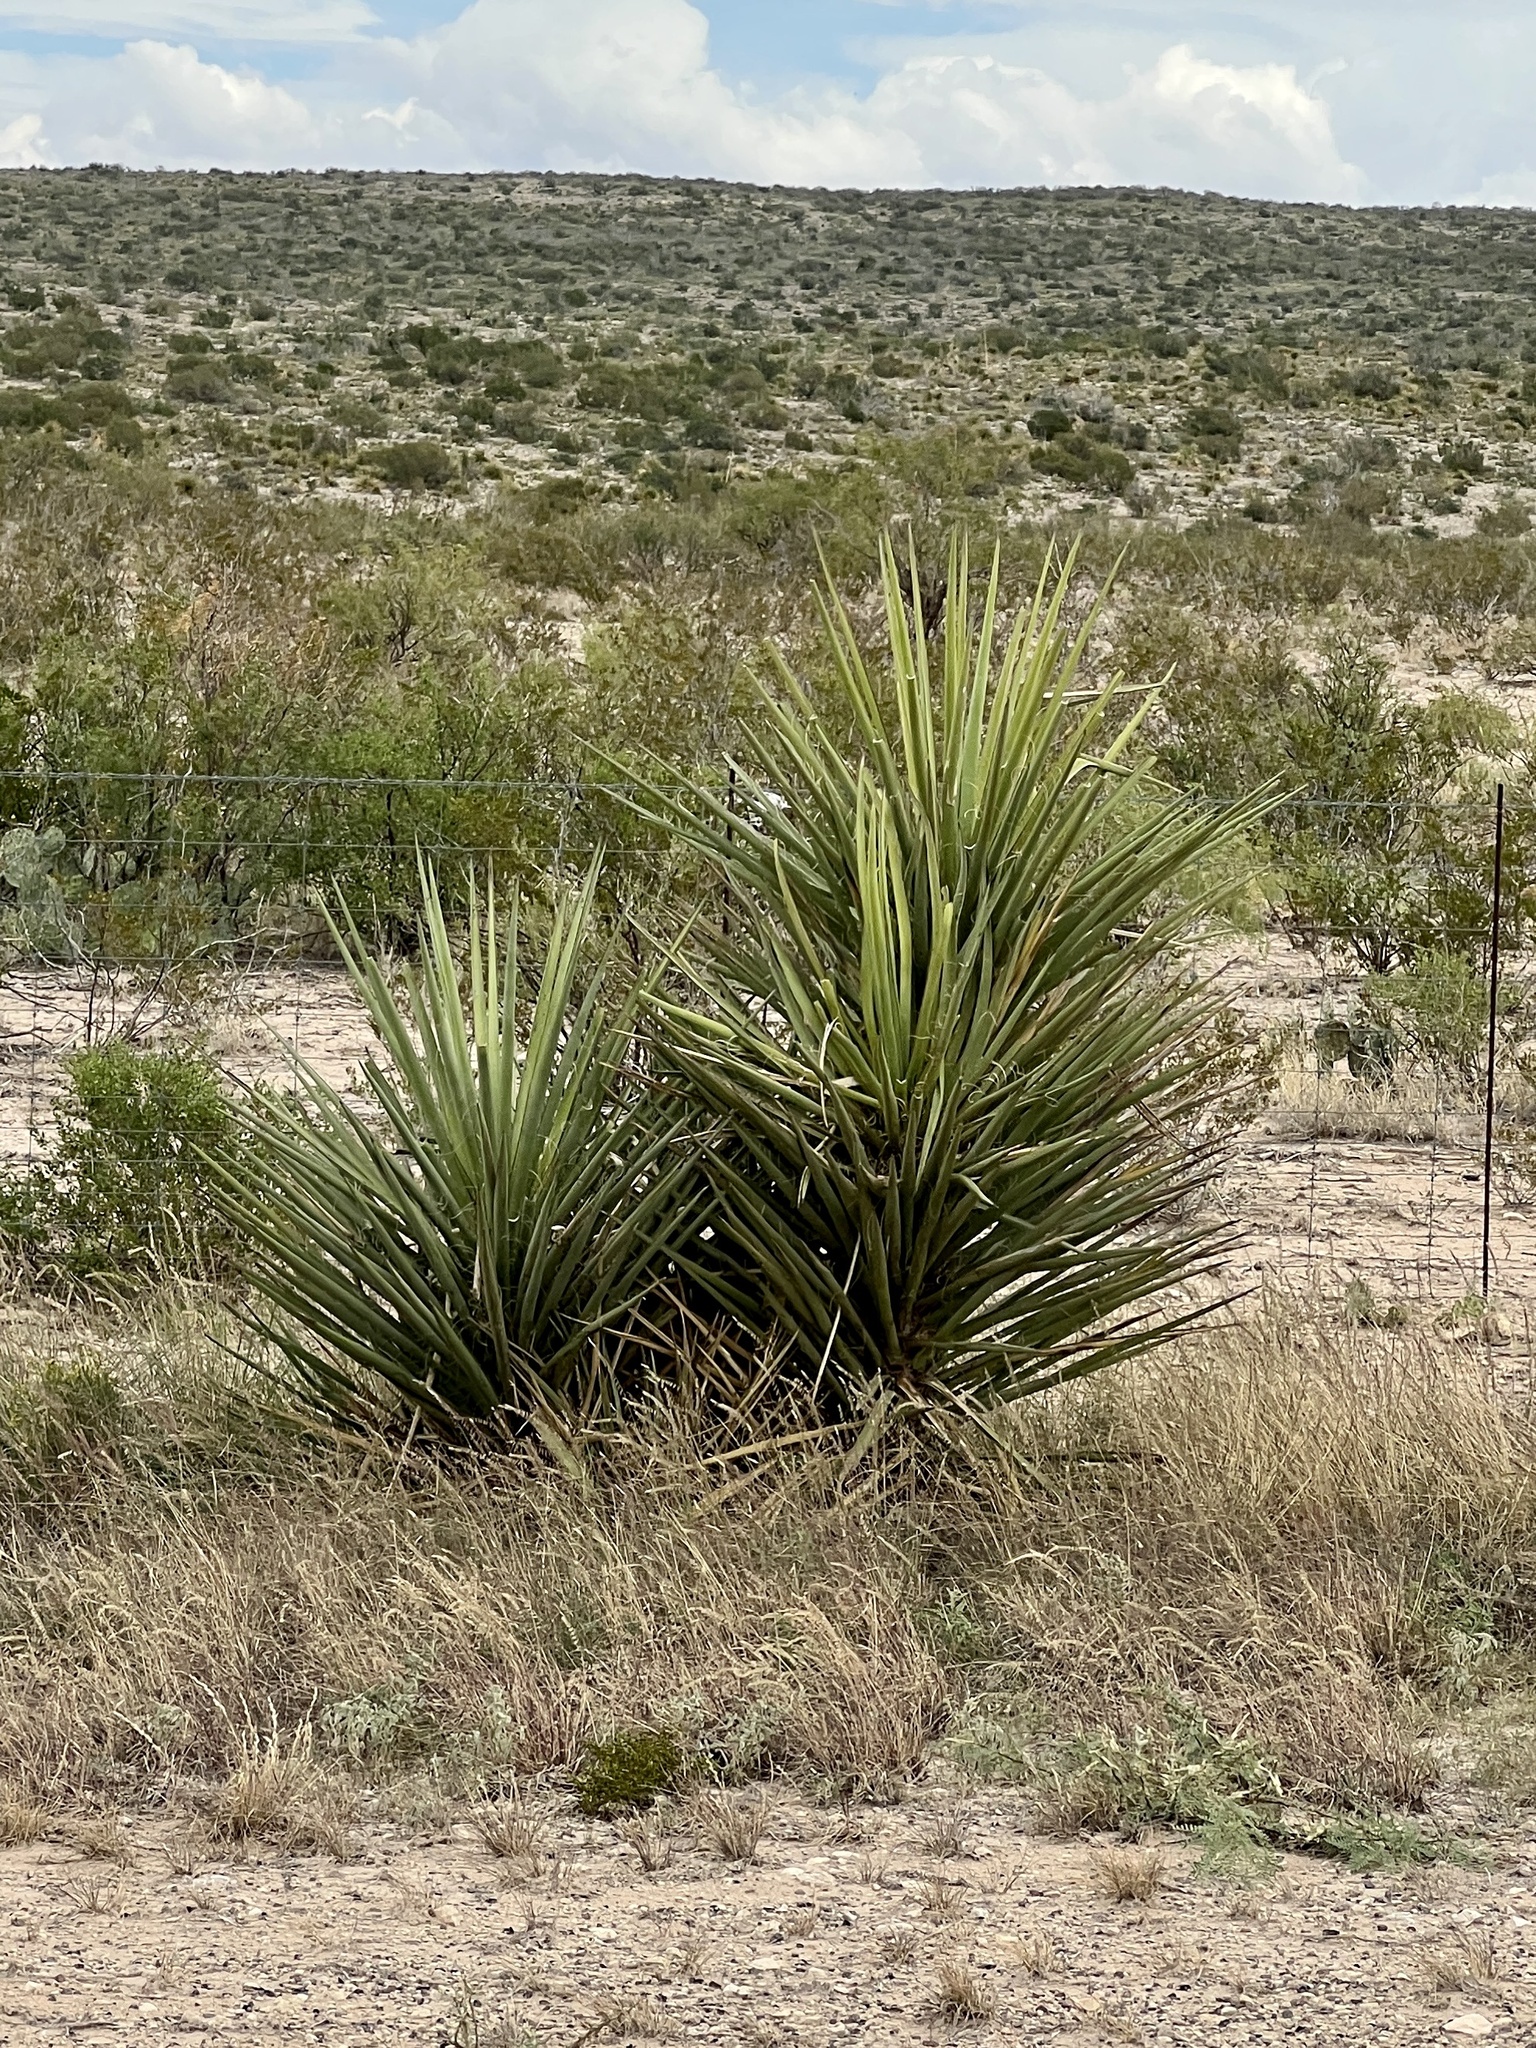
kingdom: Plantae
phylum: Tracheophyta
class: Liliopsida
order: Asparagales
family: Asparagaceae
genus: Yucca
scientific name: Yucca treculiana
